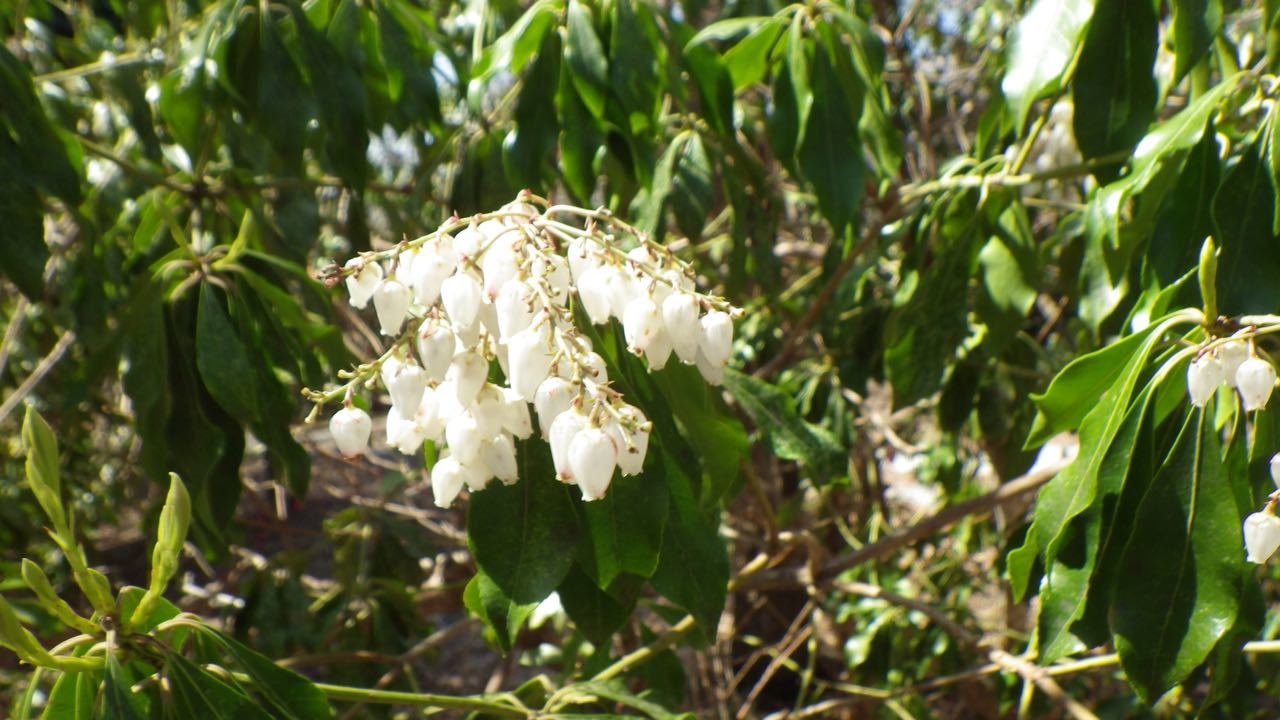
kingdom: Plantae
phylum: Tracheophyta
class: Magnoliopsida
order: Ericales
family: Ericaceae
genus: Pieris
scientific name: Pieris japonica
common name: Japanese pieris
